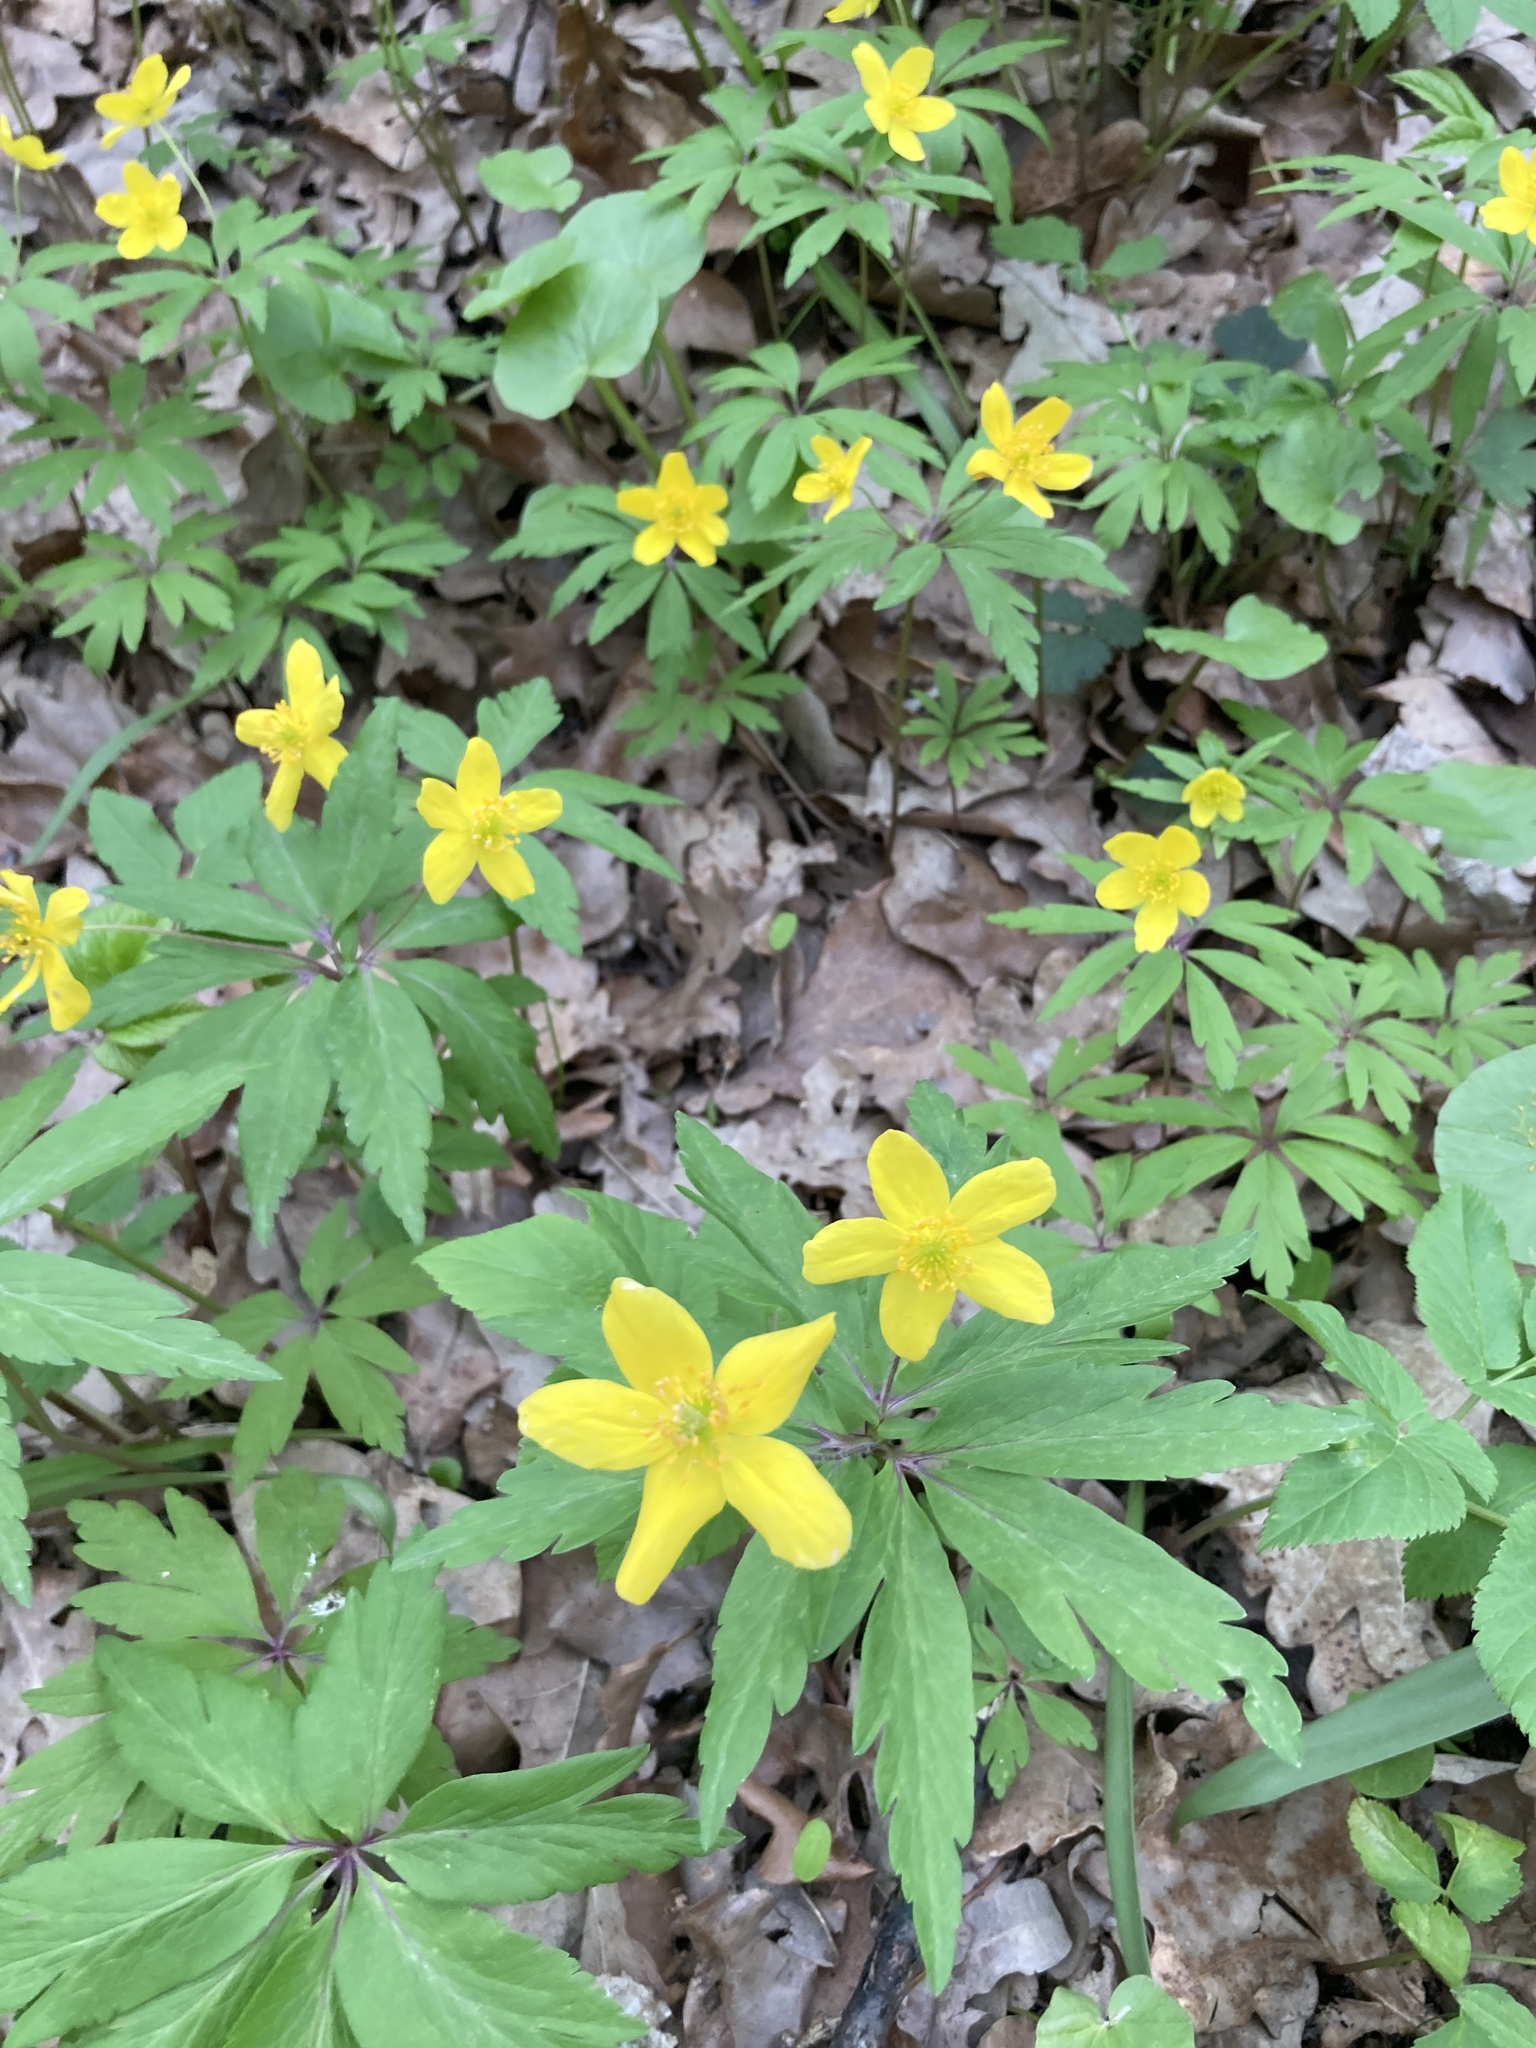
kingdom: Plantae
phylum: Tracheophyta
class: Magnoliopsida
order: Ranunculales
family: Ranunculaceae
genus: Anemone
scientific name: Anemone ranunculoides
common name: Yellow anemone
